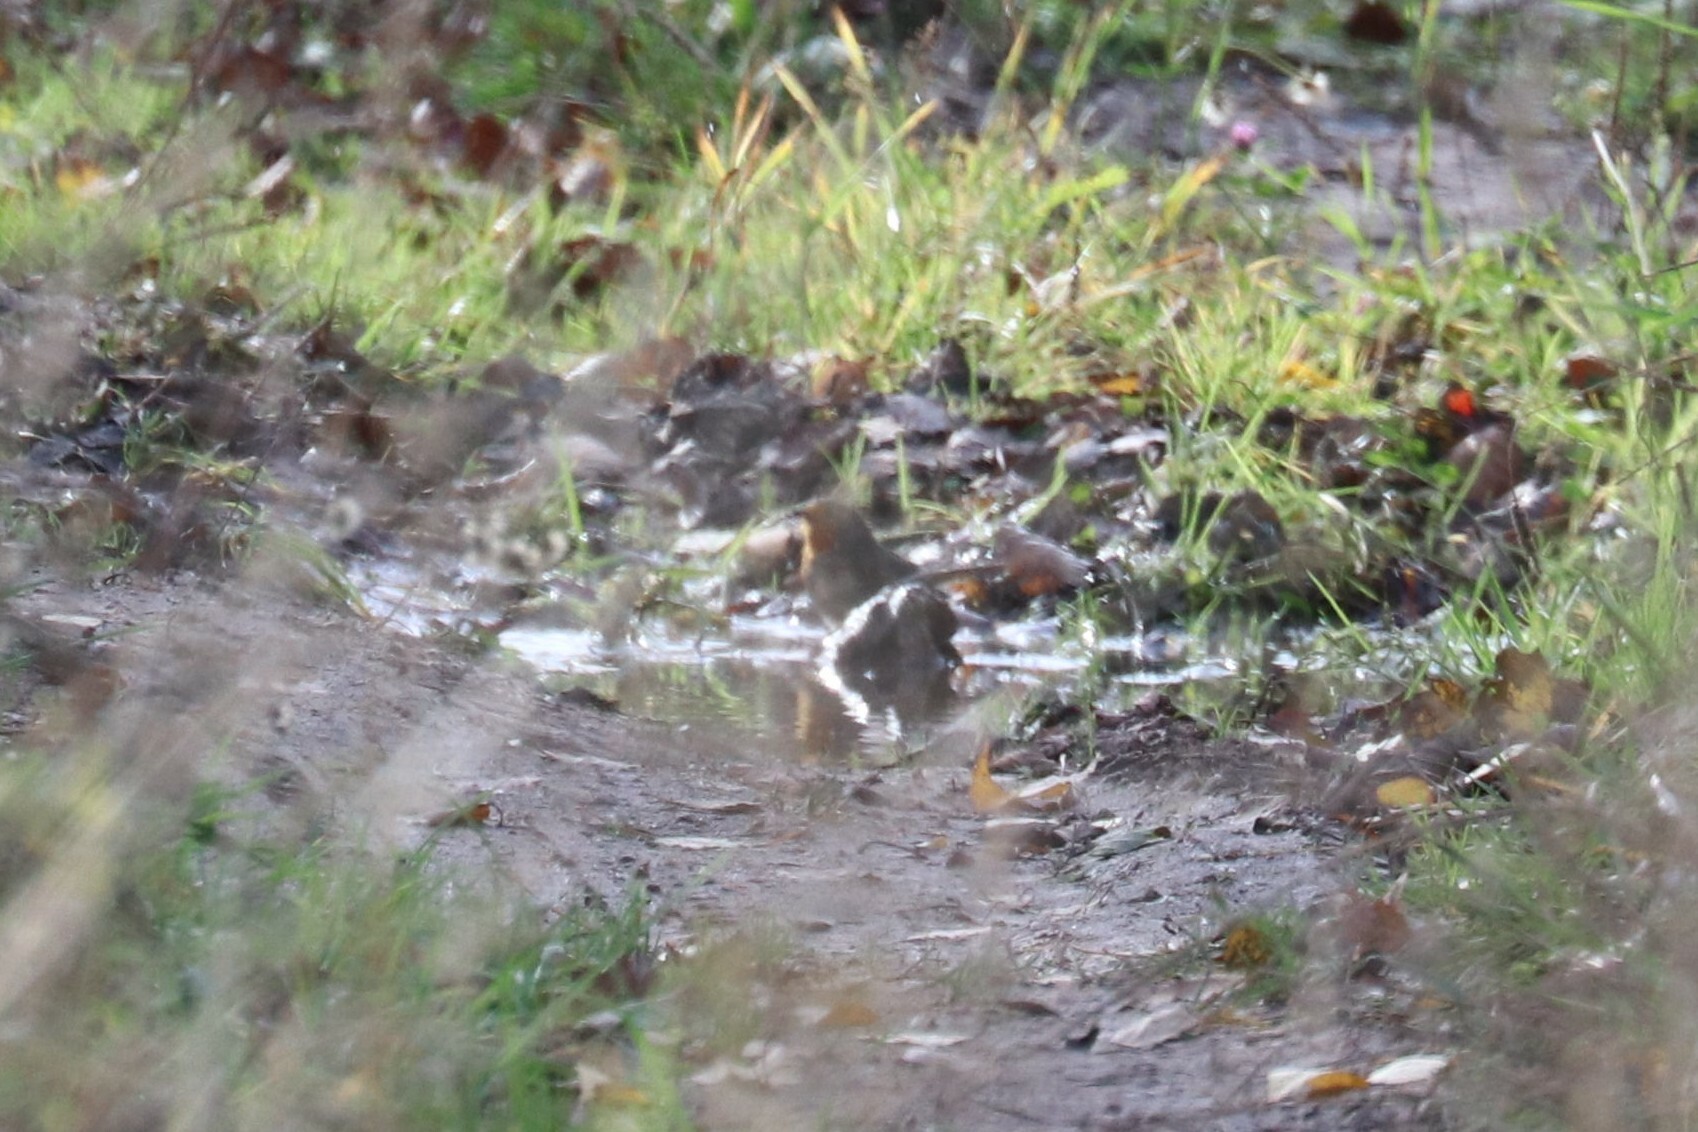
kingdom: Animalia
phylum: Chordata
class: Aves
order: Passeriformes
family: Muscicapidae
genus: Erithacus
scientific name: Erithacus rubecula
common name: European robin
